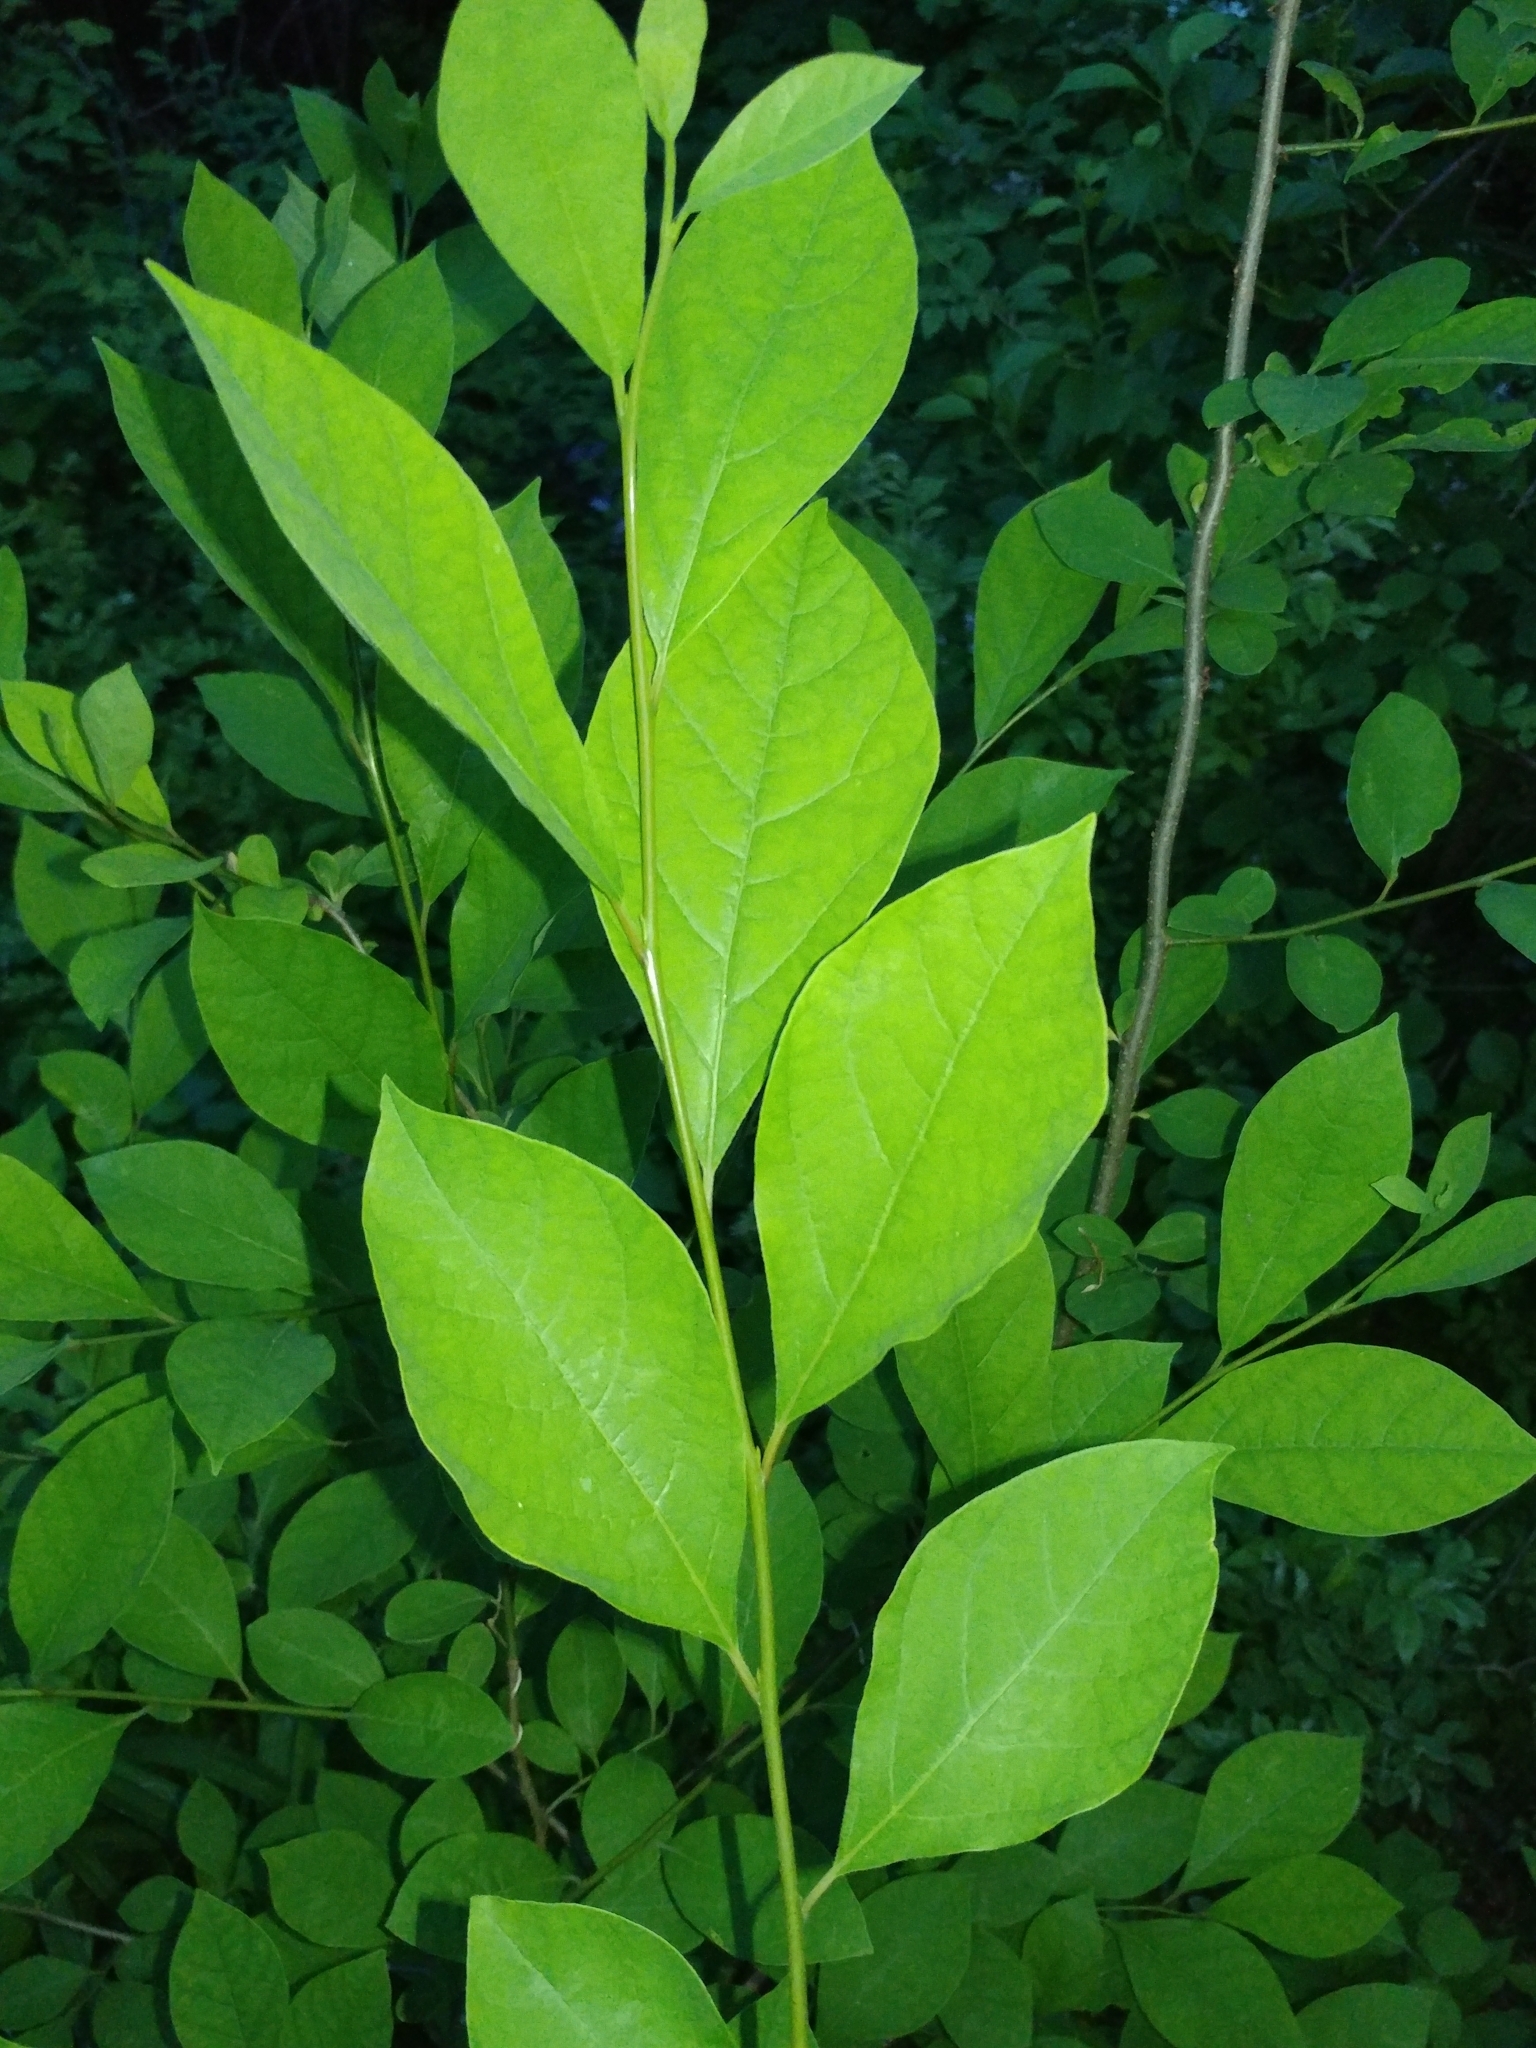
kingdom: Plantae
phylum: Tracheophyta
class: Magnoliopsida
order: Laurales
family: Lauraceae
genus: Lindera
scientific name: Lindera benzoin
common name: Spicebush
